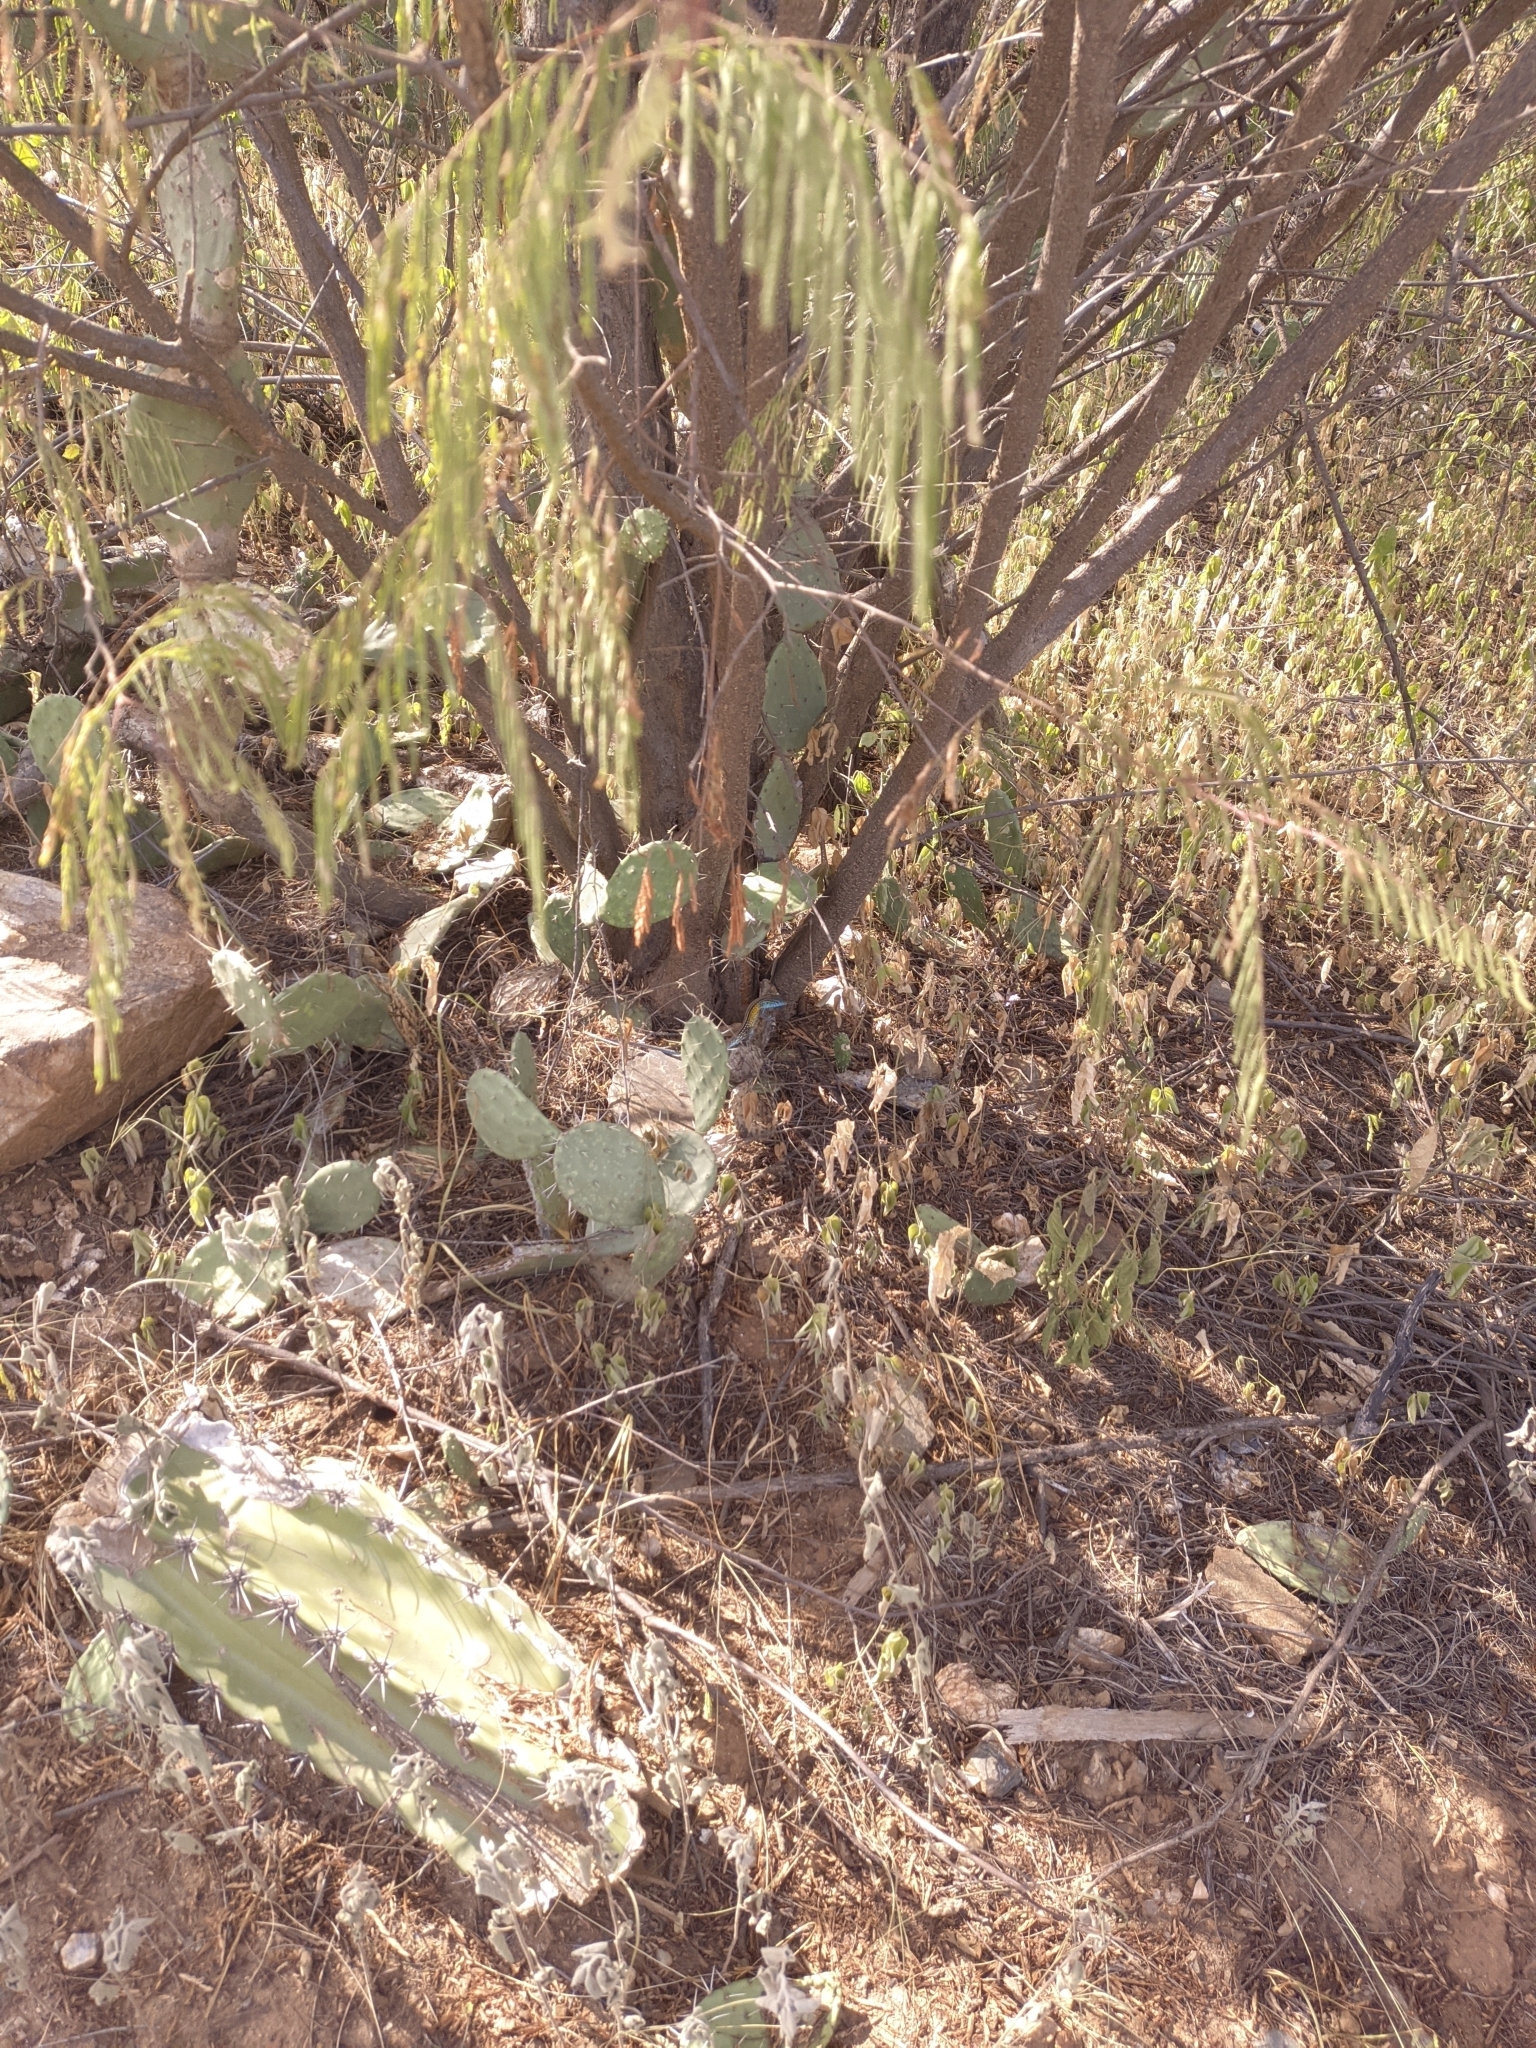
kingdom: Animalia
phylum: Chordata
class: Squamata
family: Teiidae
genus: Cnemidophorus
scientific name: Cnemidophorus gaigei
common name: Gaige’s rainbow lizard
